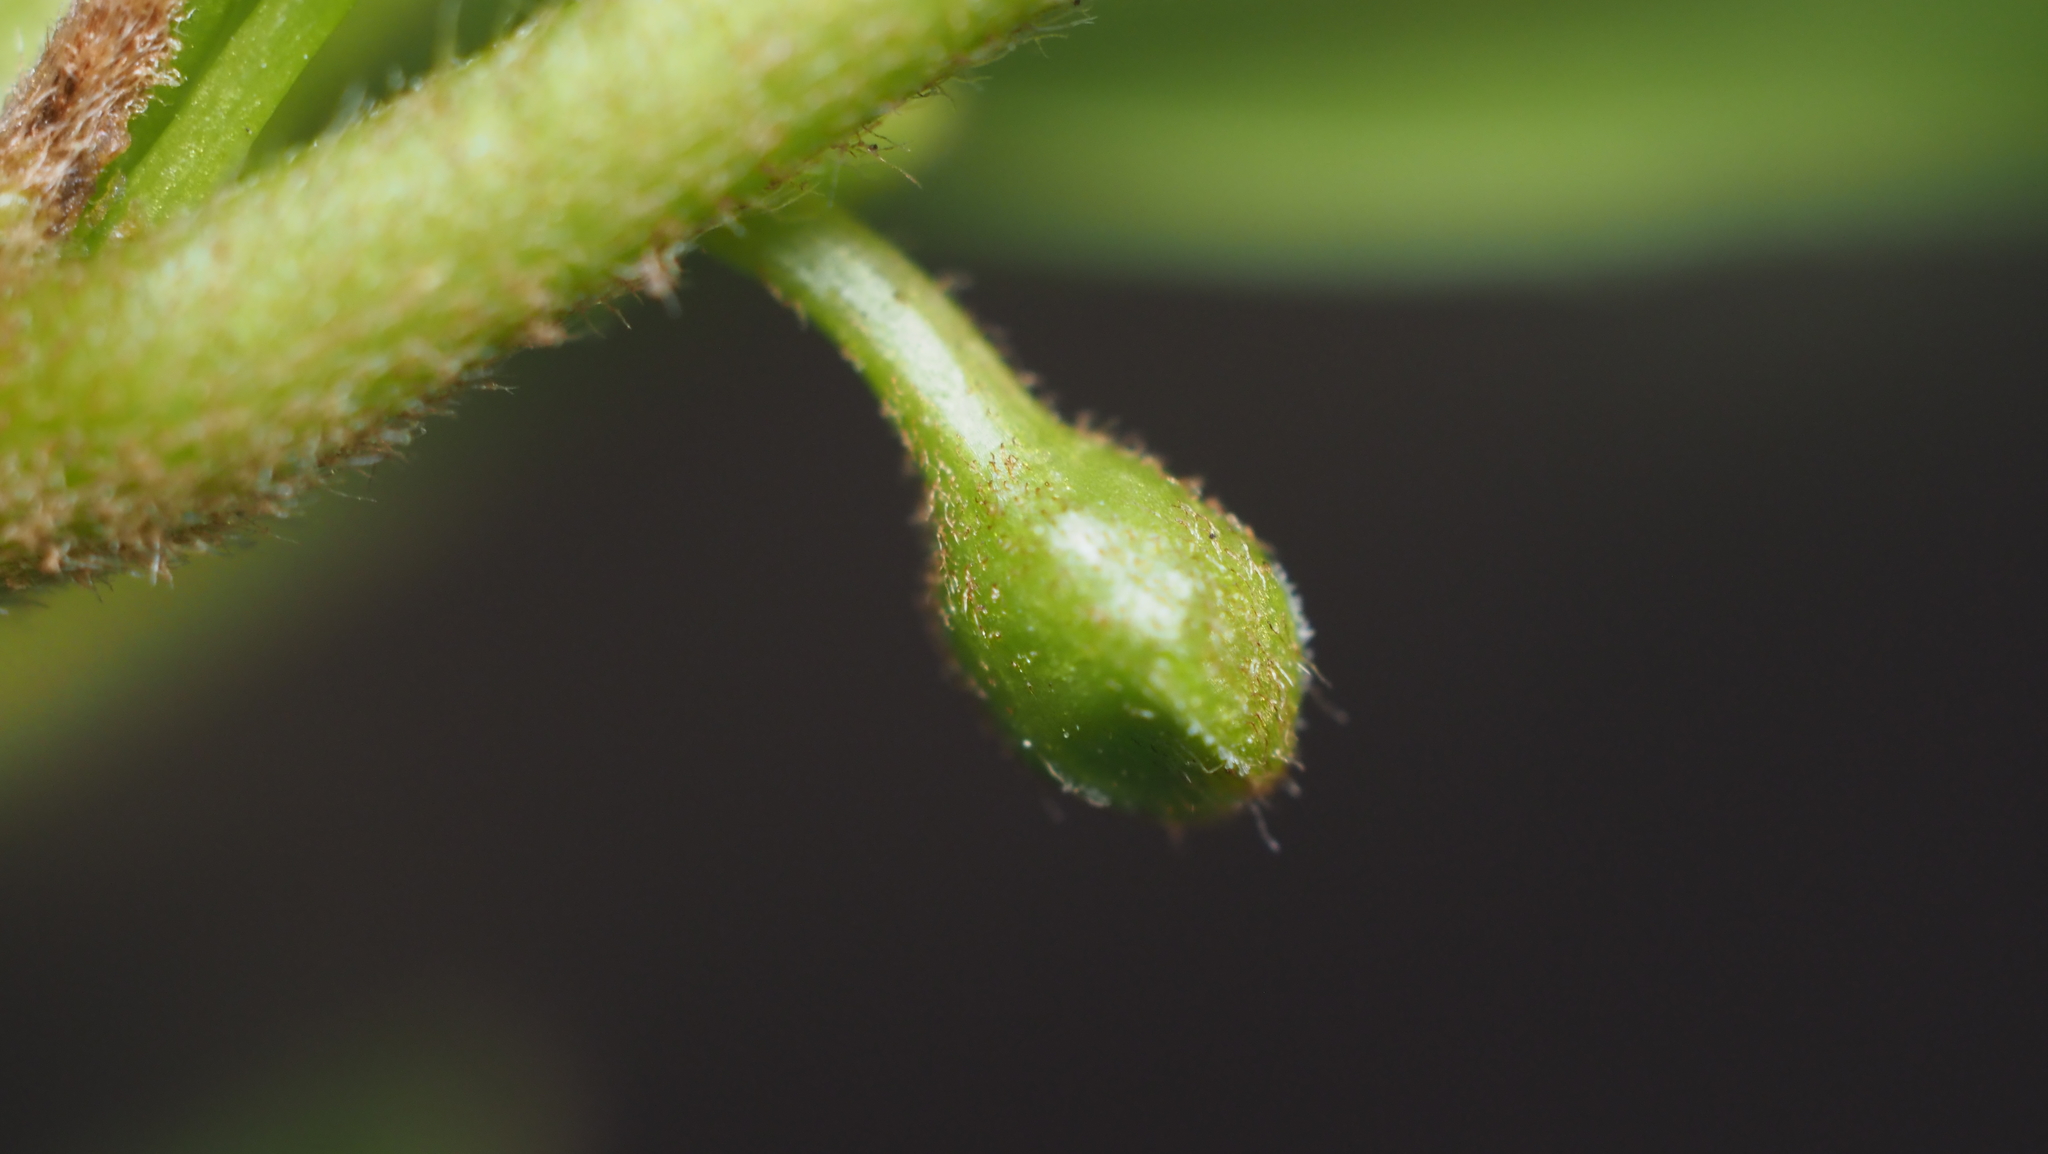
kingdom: Plantae
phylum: Tracheophyta
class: Magnoliopsida
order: Rosales
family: Rhamnaceae
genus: Frangula
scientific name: Frangula alnus
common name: Alder buckthorn
